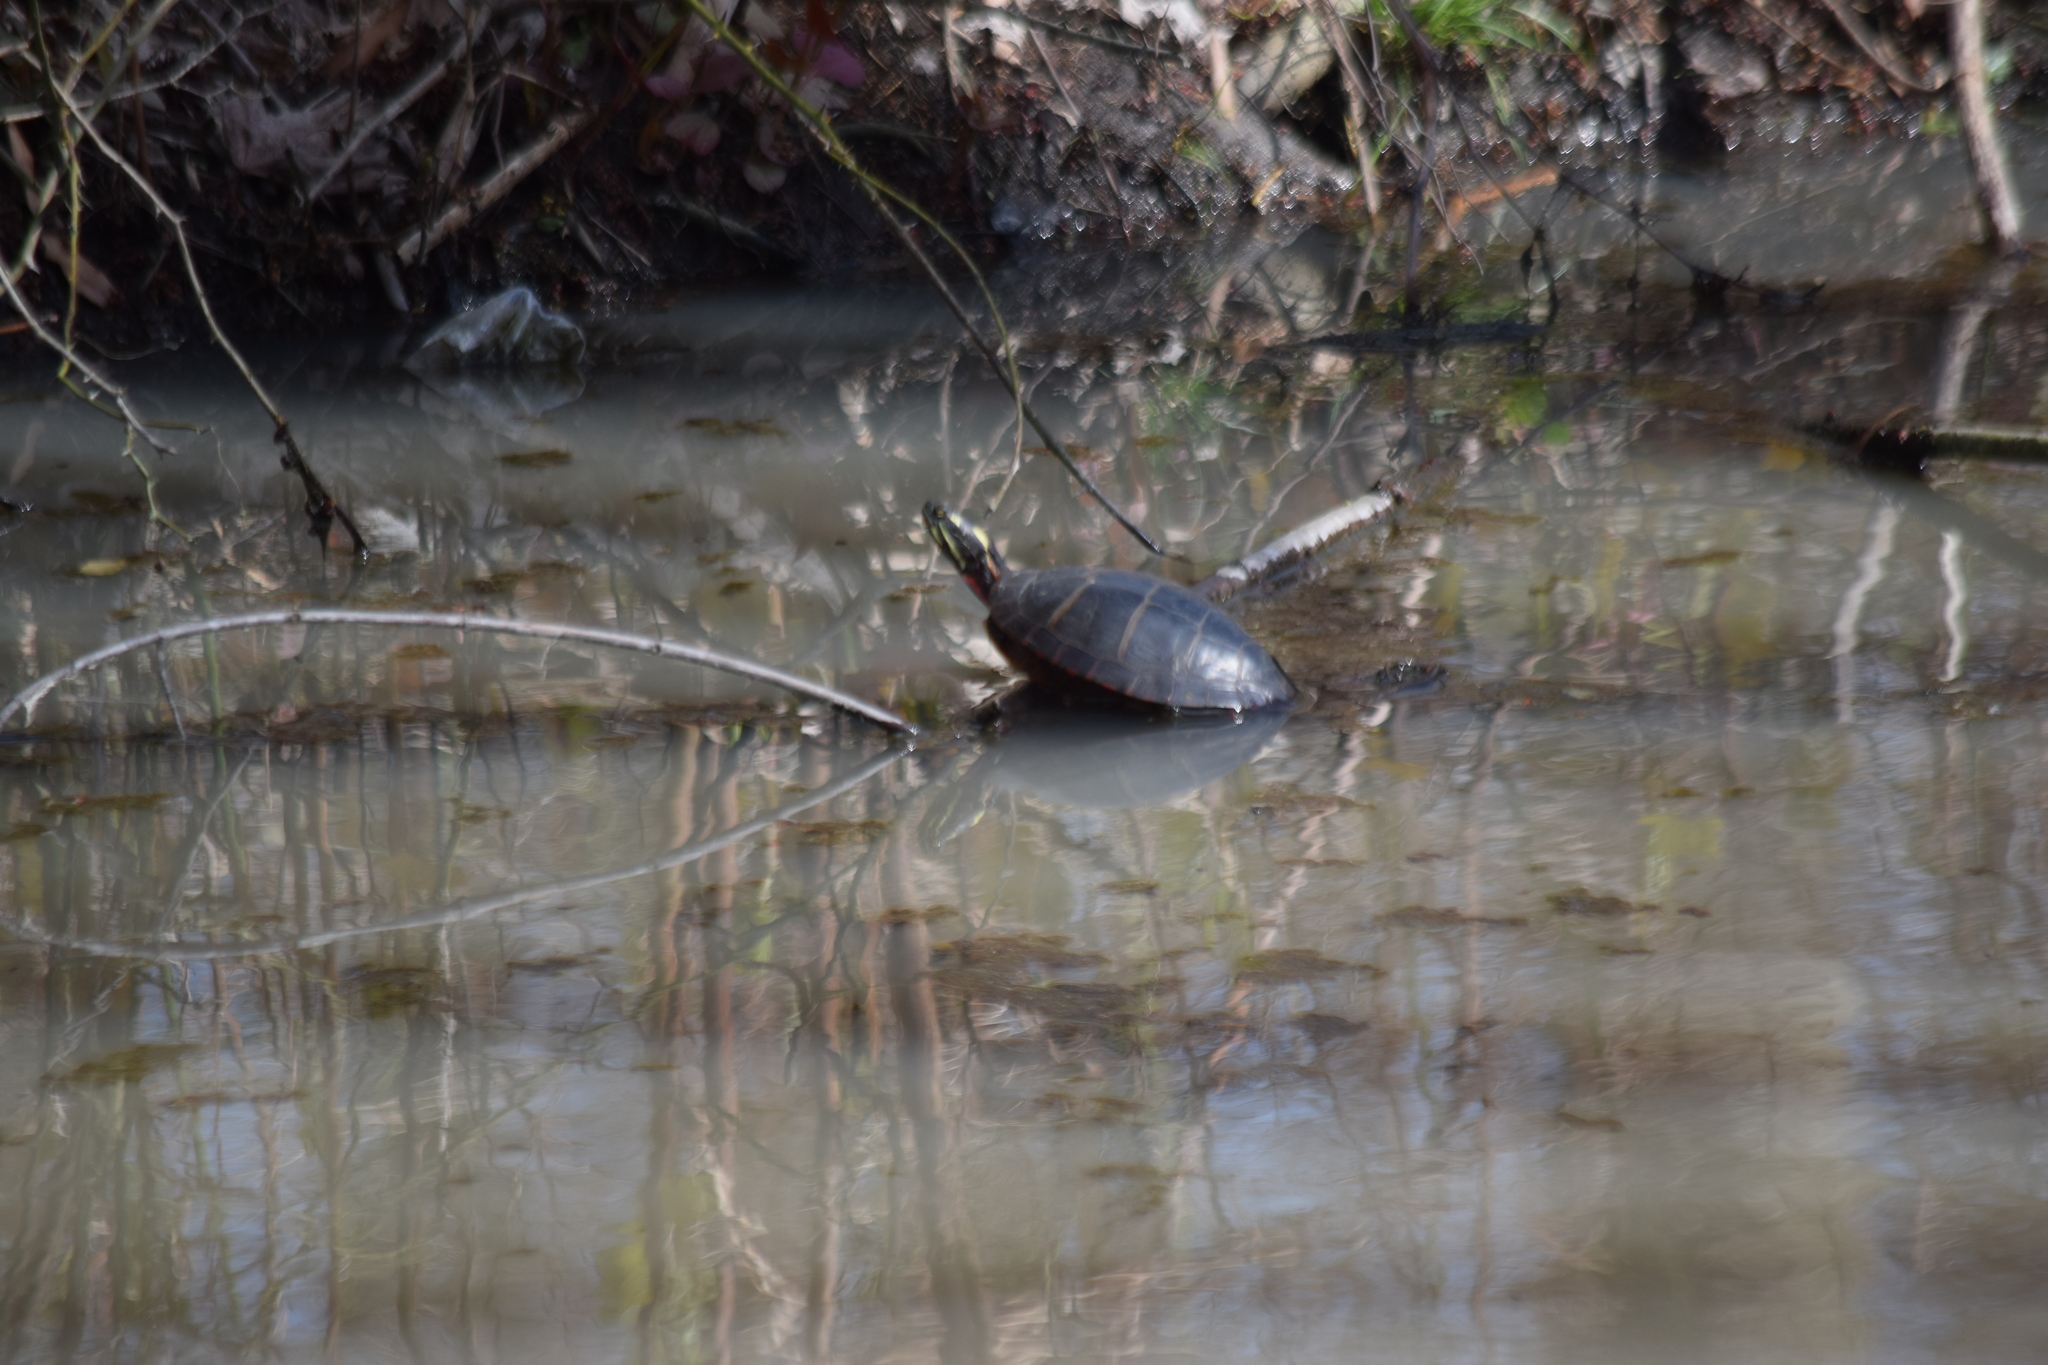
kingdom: Animalia
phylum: Chordata
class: Testudines
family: Emydidae
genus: Chrysemys
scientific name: Chrysemys picta
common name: Painted turtle
